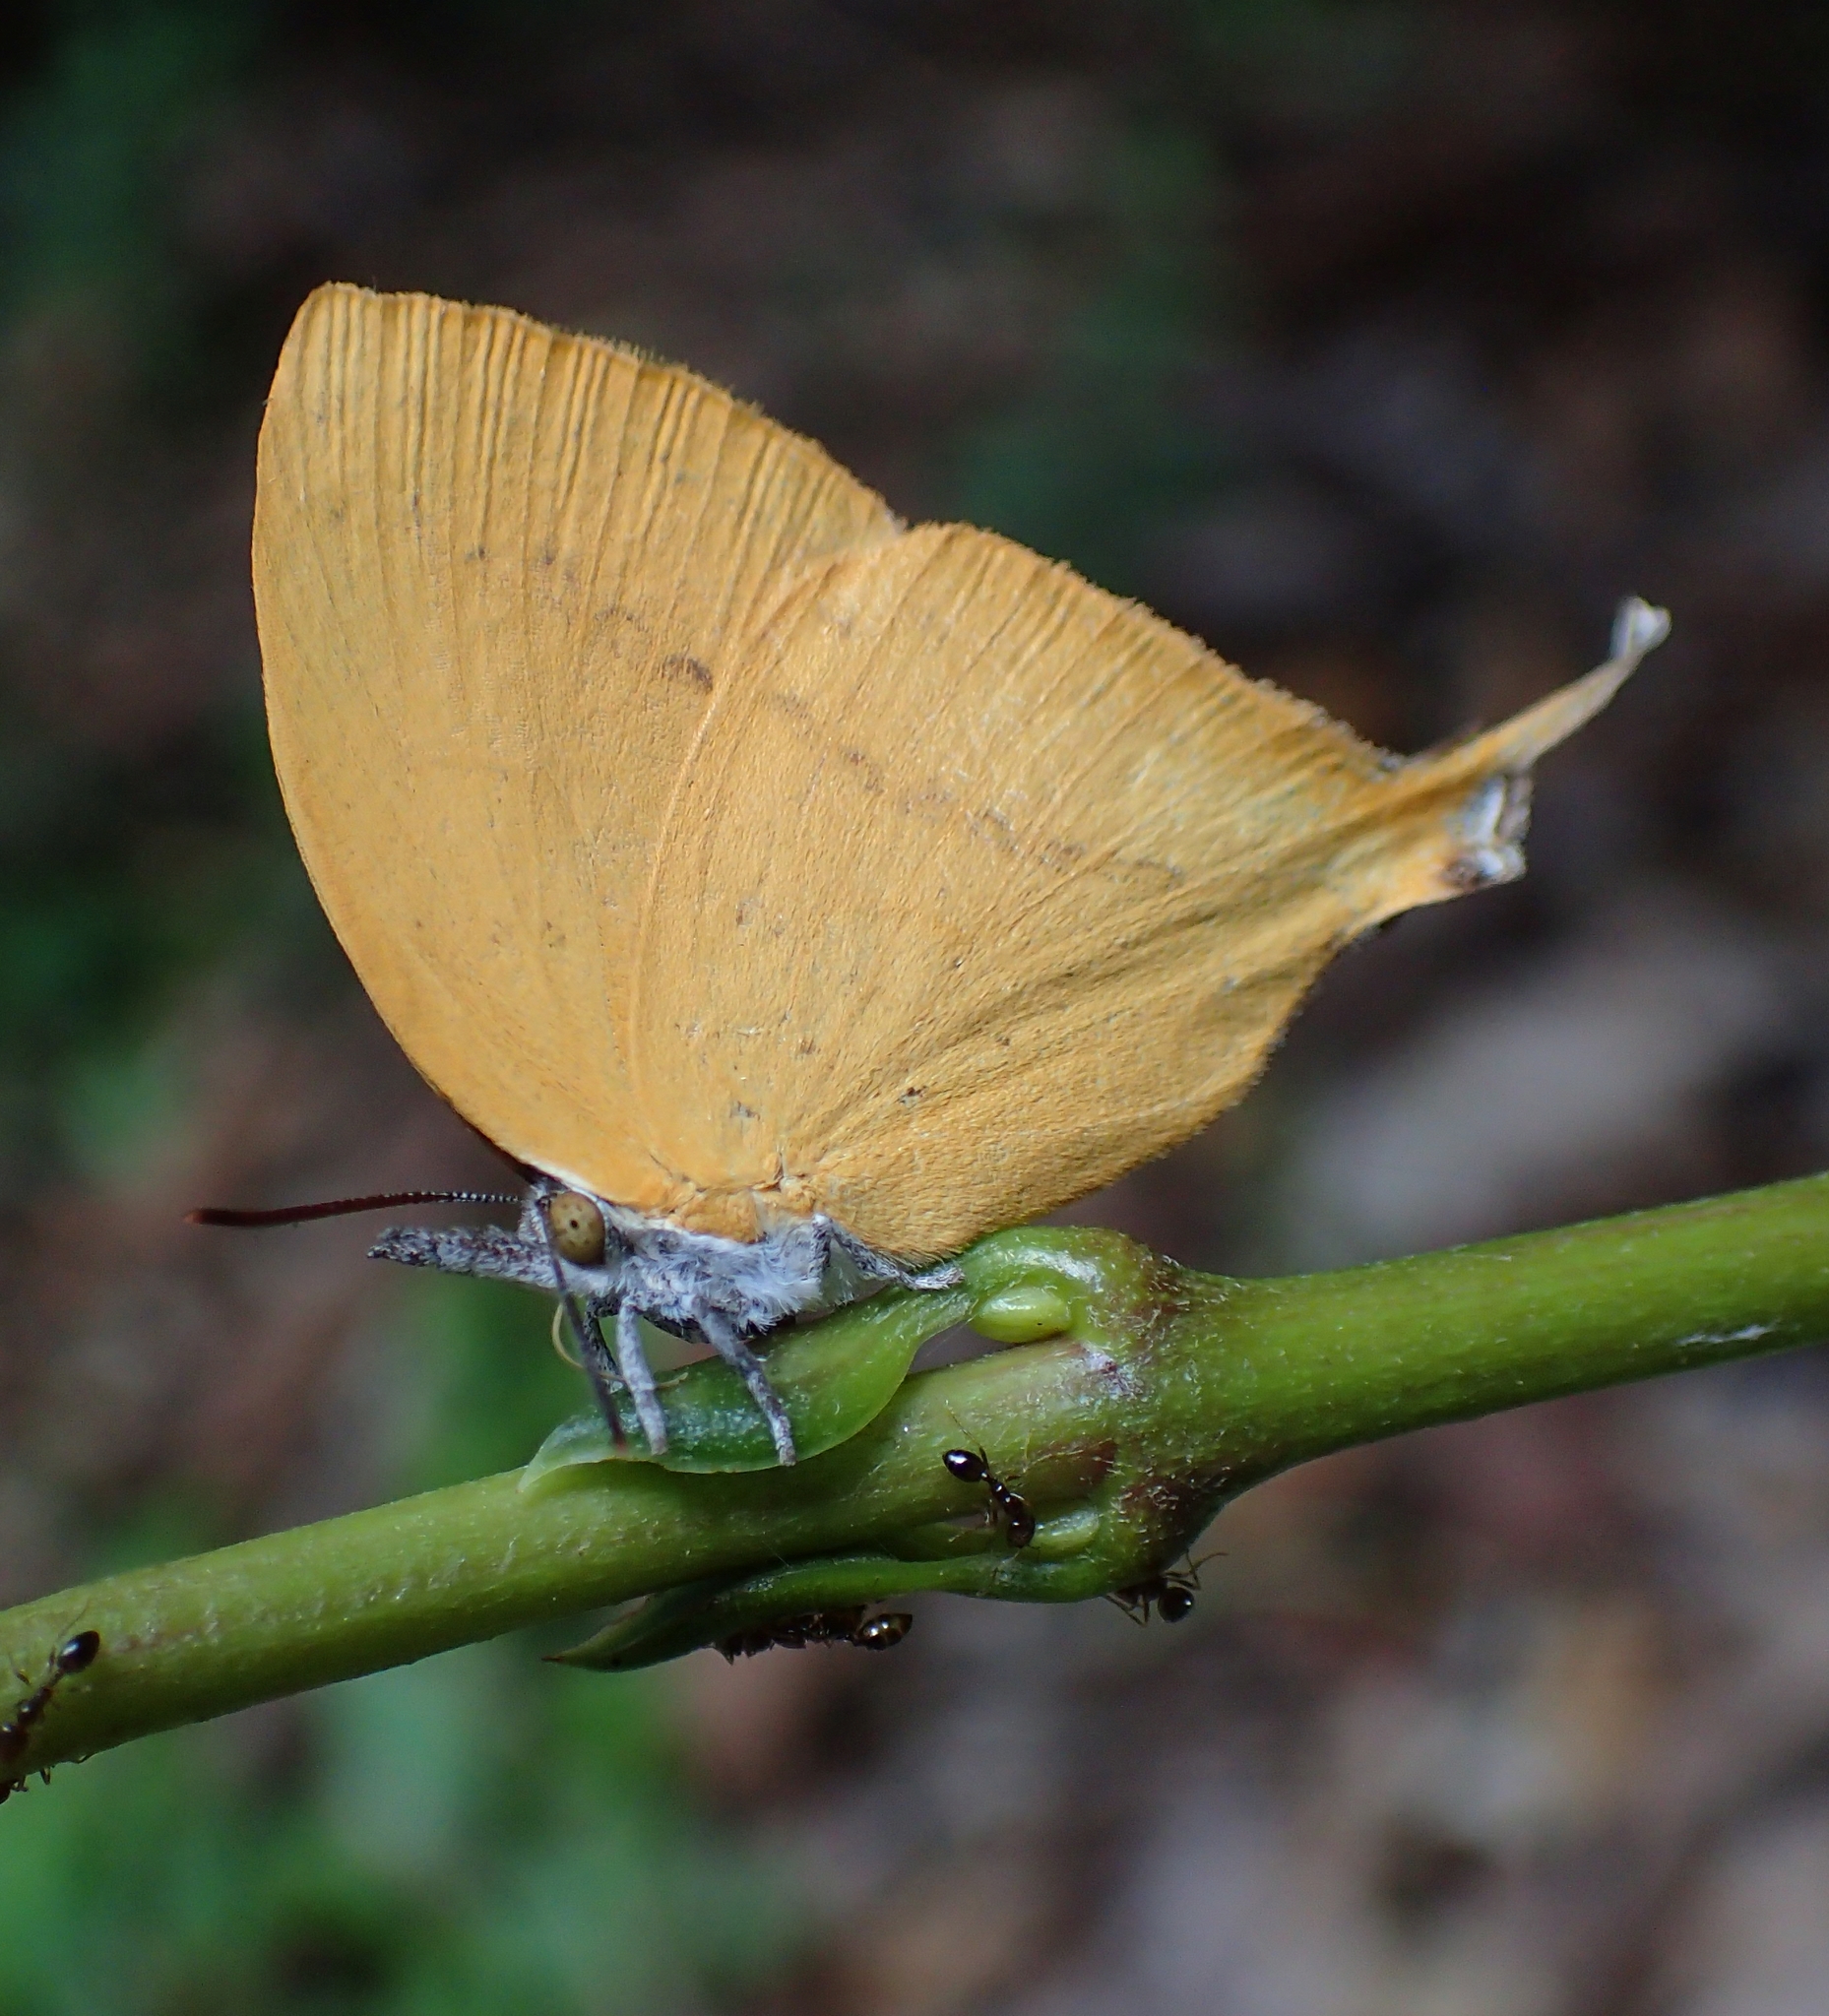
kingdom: Animalia
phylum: Arthropoda
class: Insecta
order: Lepidoptera
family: Lycaenidae
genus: Loxura
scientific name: Loxura atymnus
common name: Common yamfly
